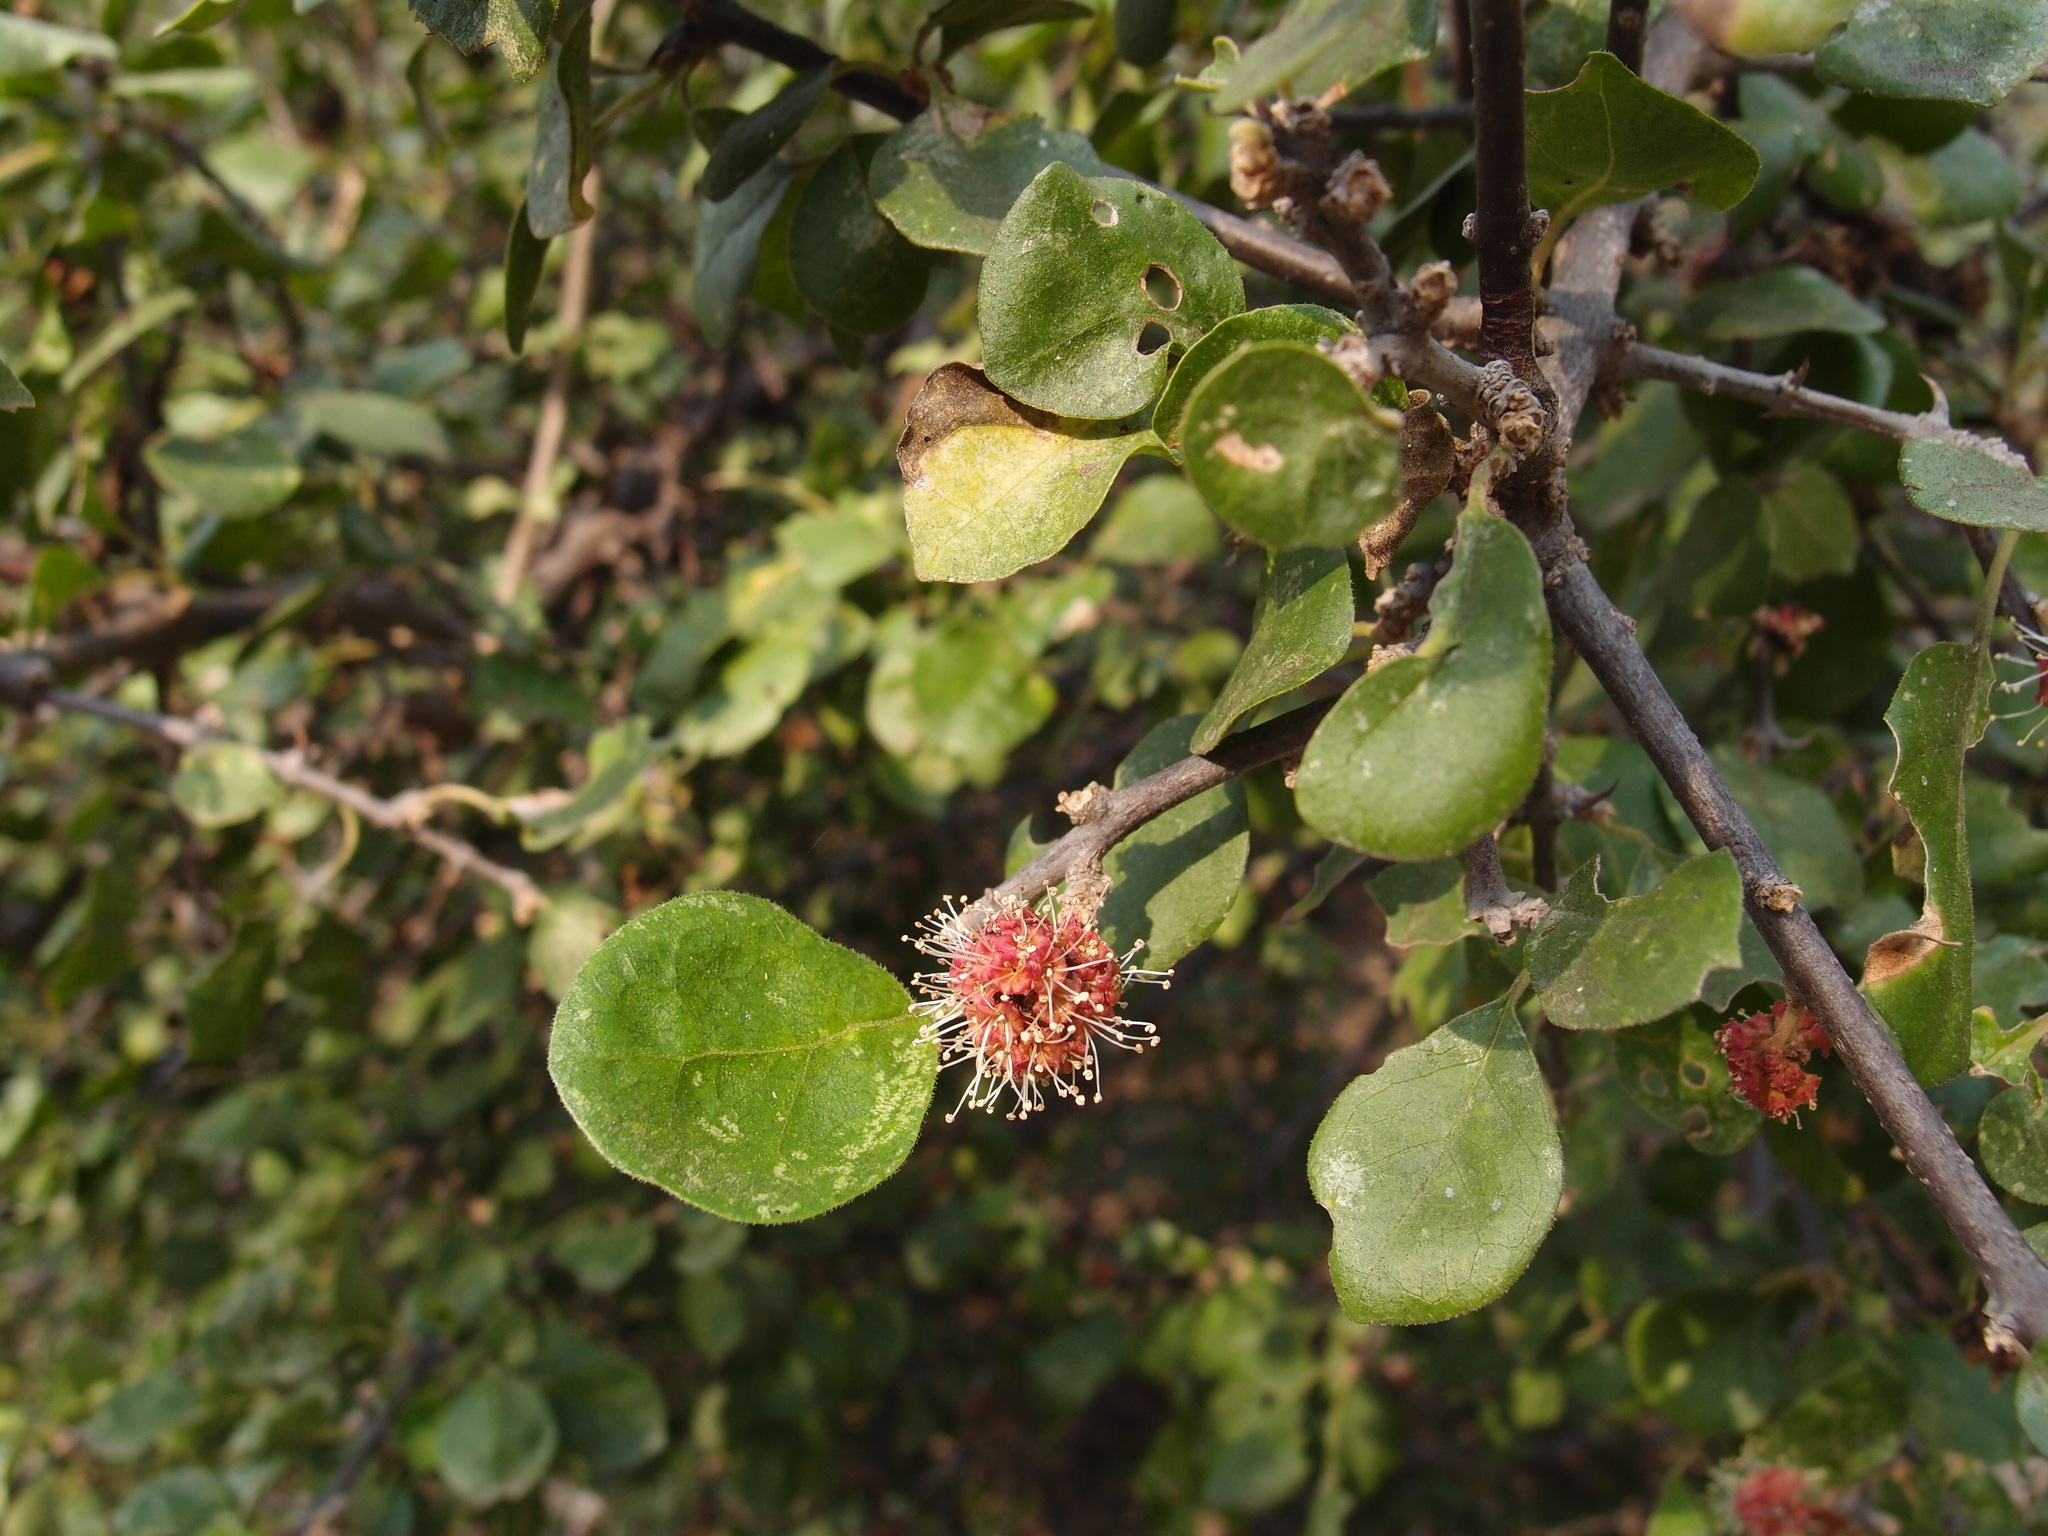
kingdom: Plantae
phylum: Tracheophyta
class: Magnoliopsida
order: Caryophyllales
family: Nyctaginaceae
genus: Pisonia
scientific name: Pisonia capitata
